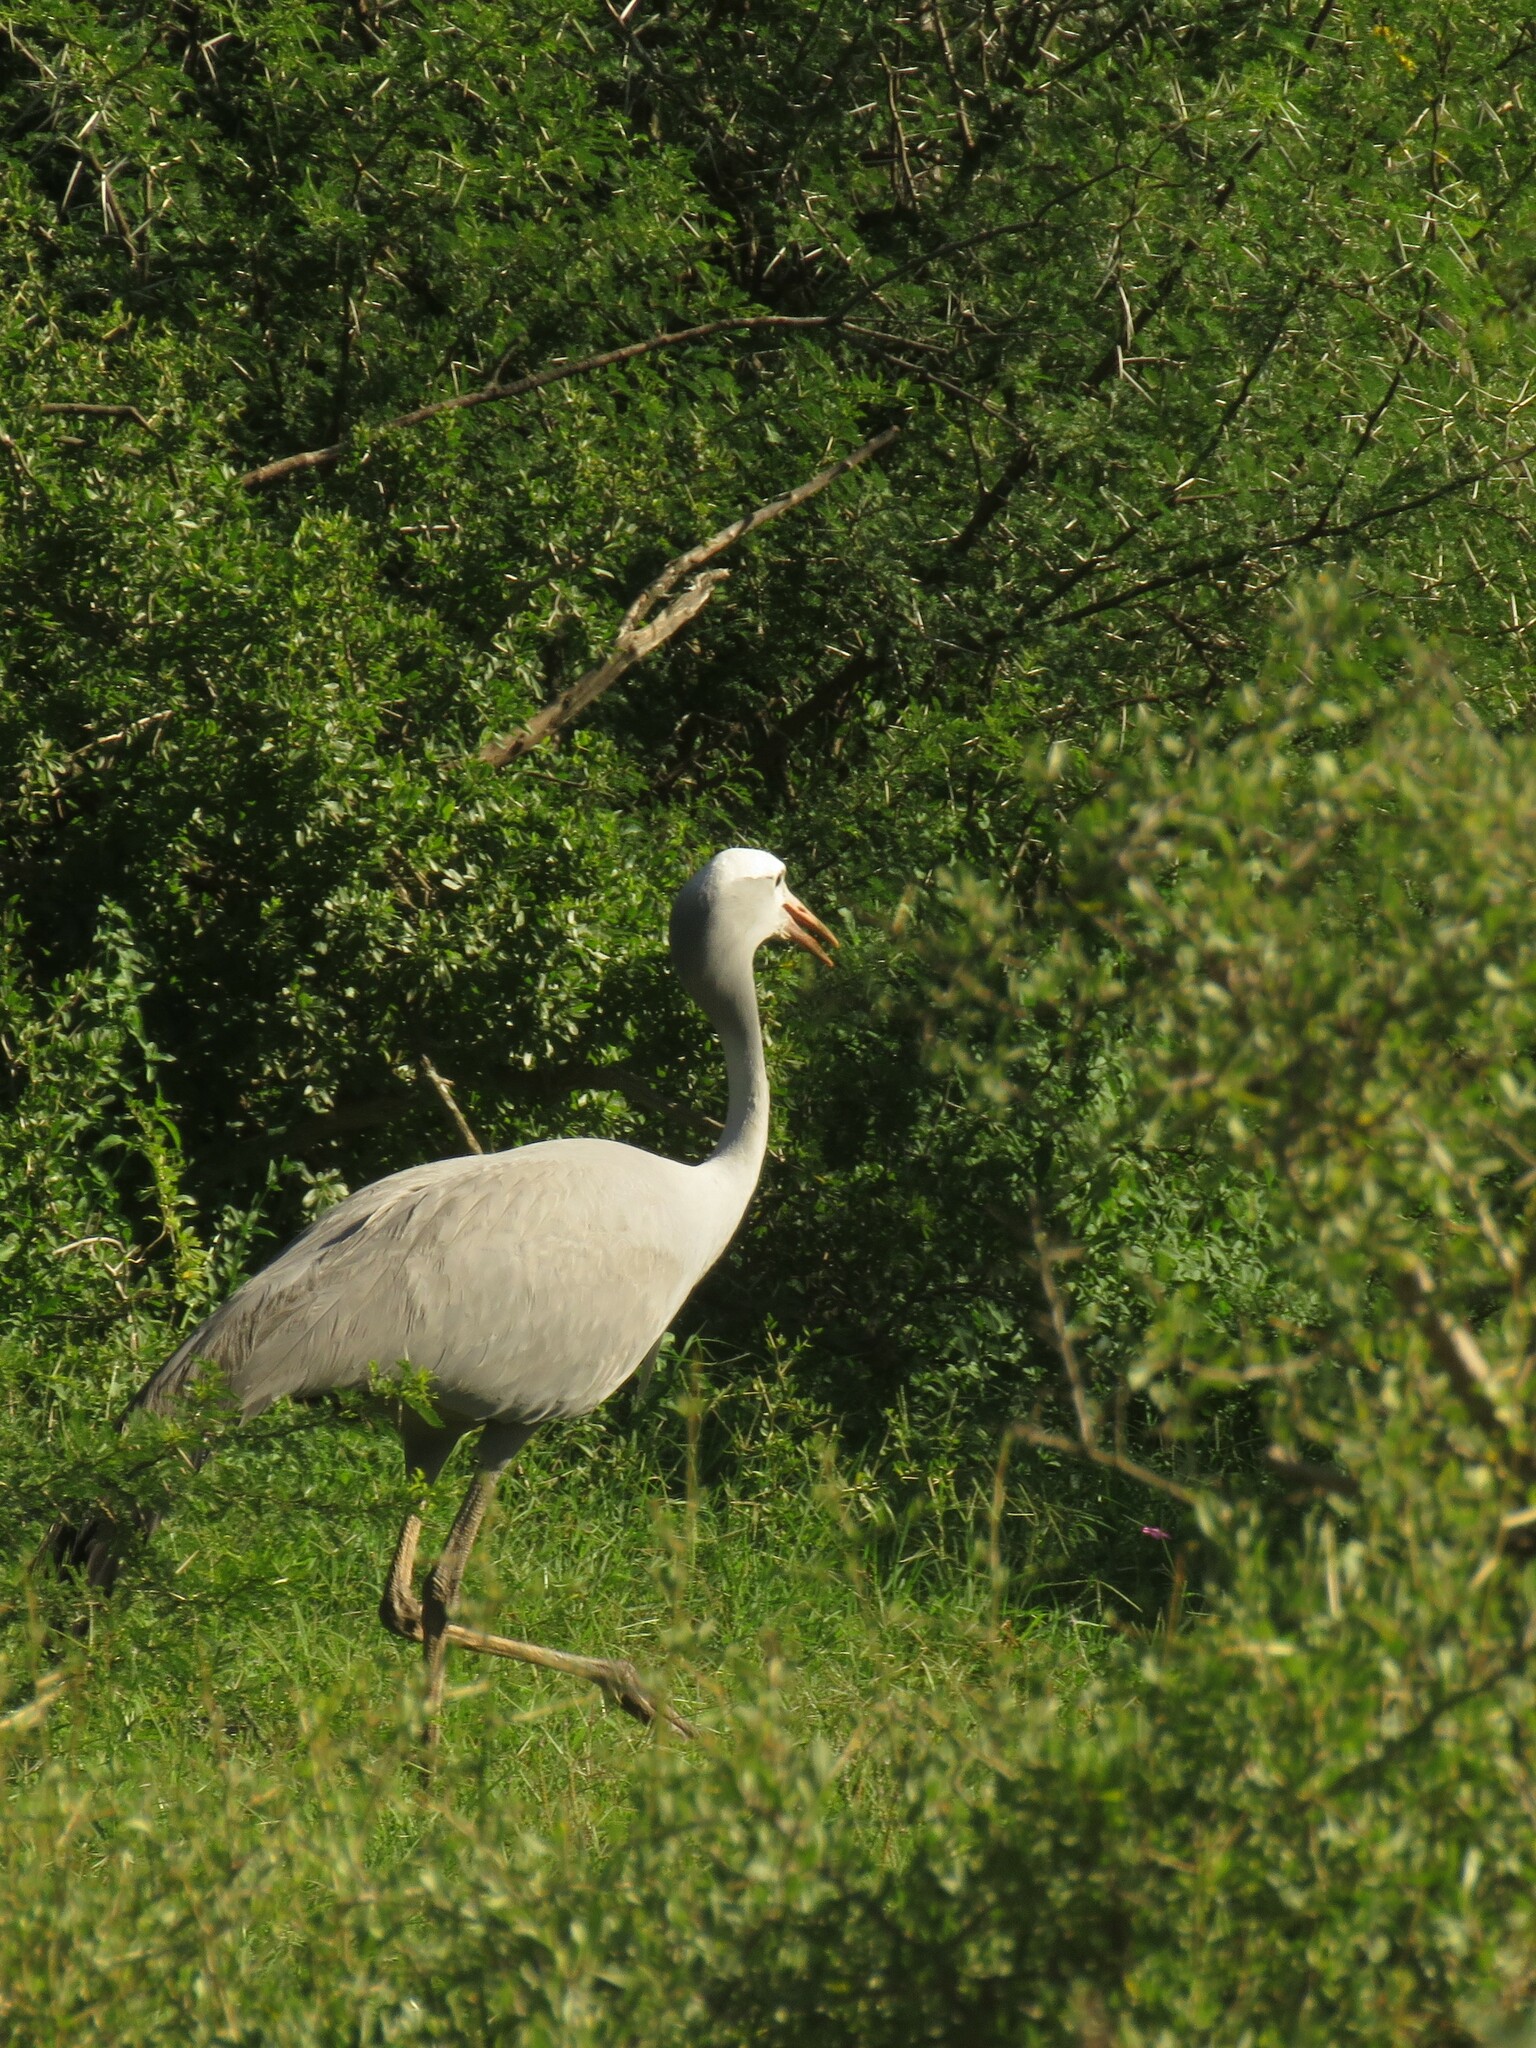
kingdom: Animalia
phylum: Chordata
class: Aves
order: Gruiformes
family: Gruidae
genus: Anthropoides
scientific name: Anthropoides paradiseus
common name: Blue crane
